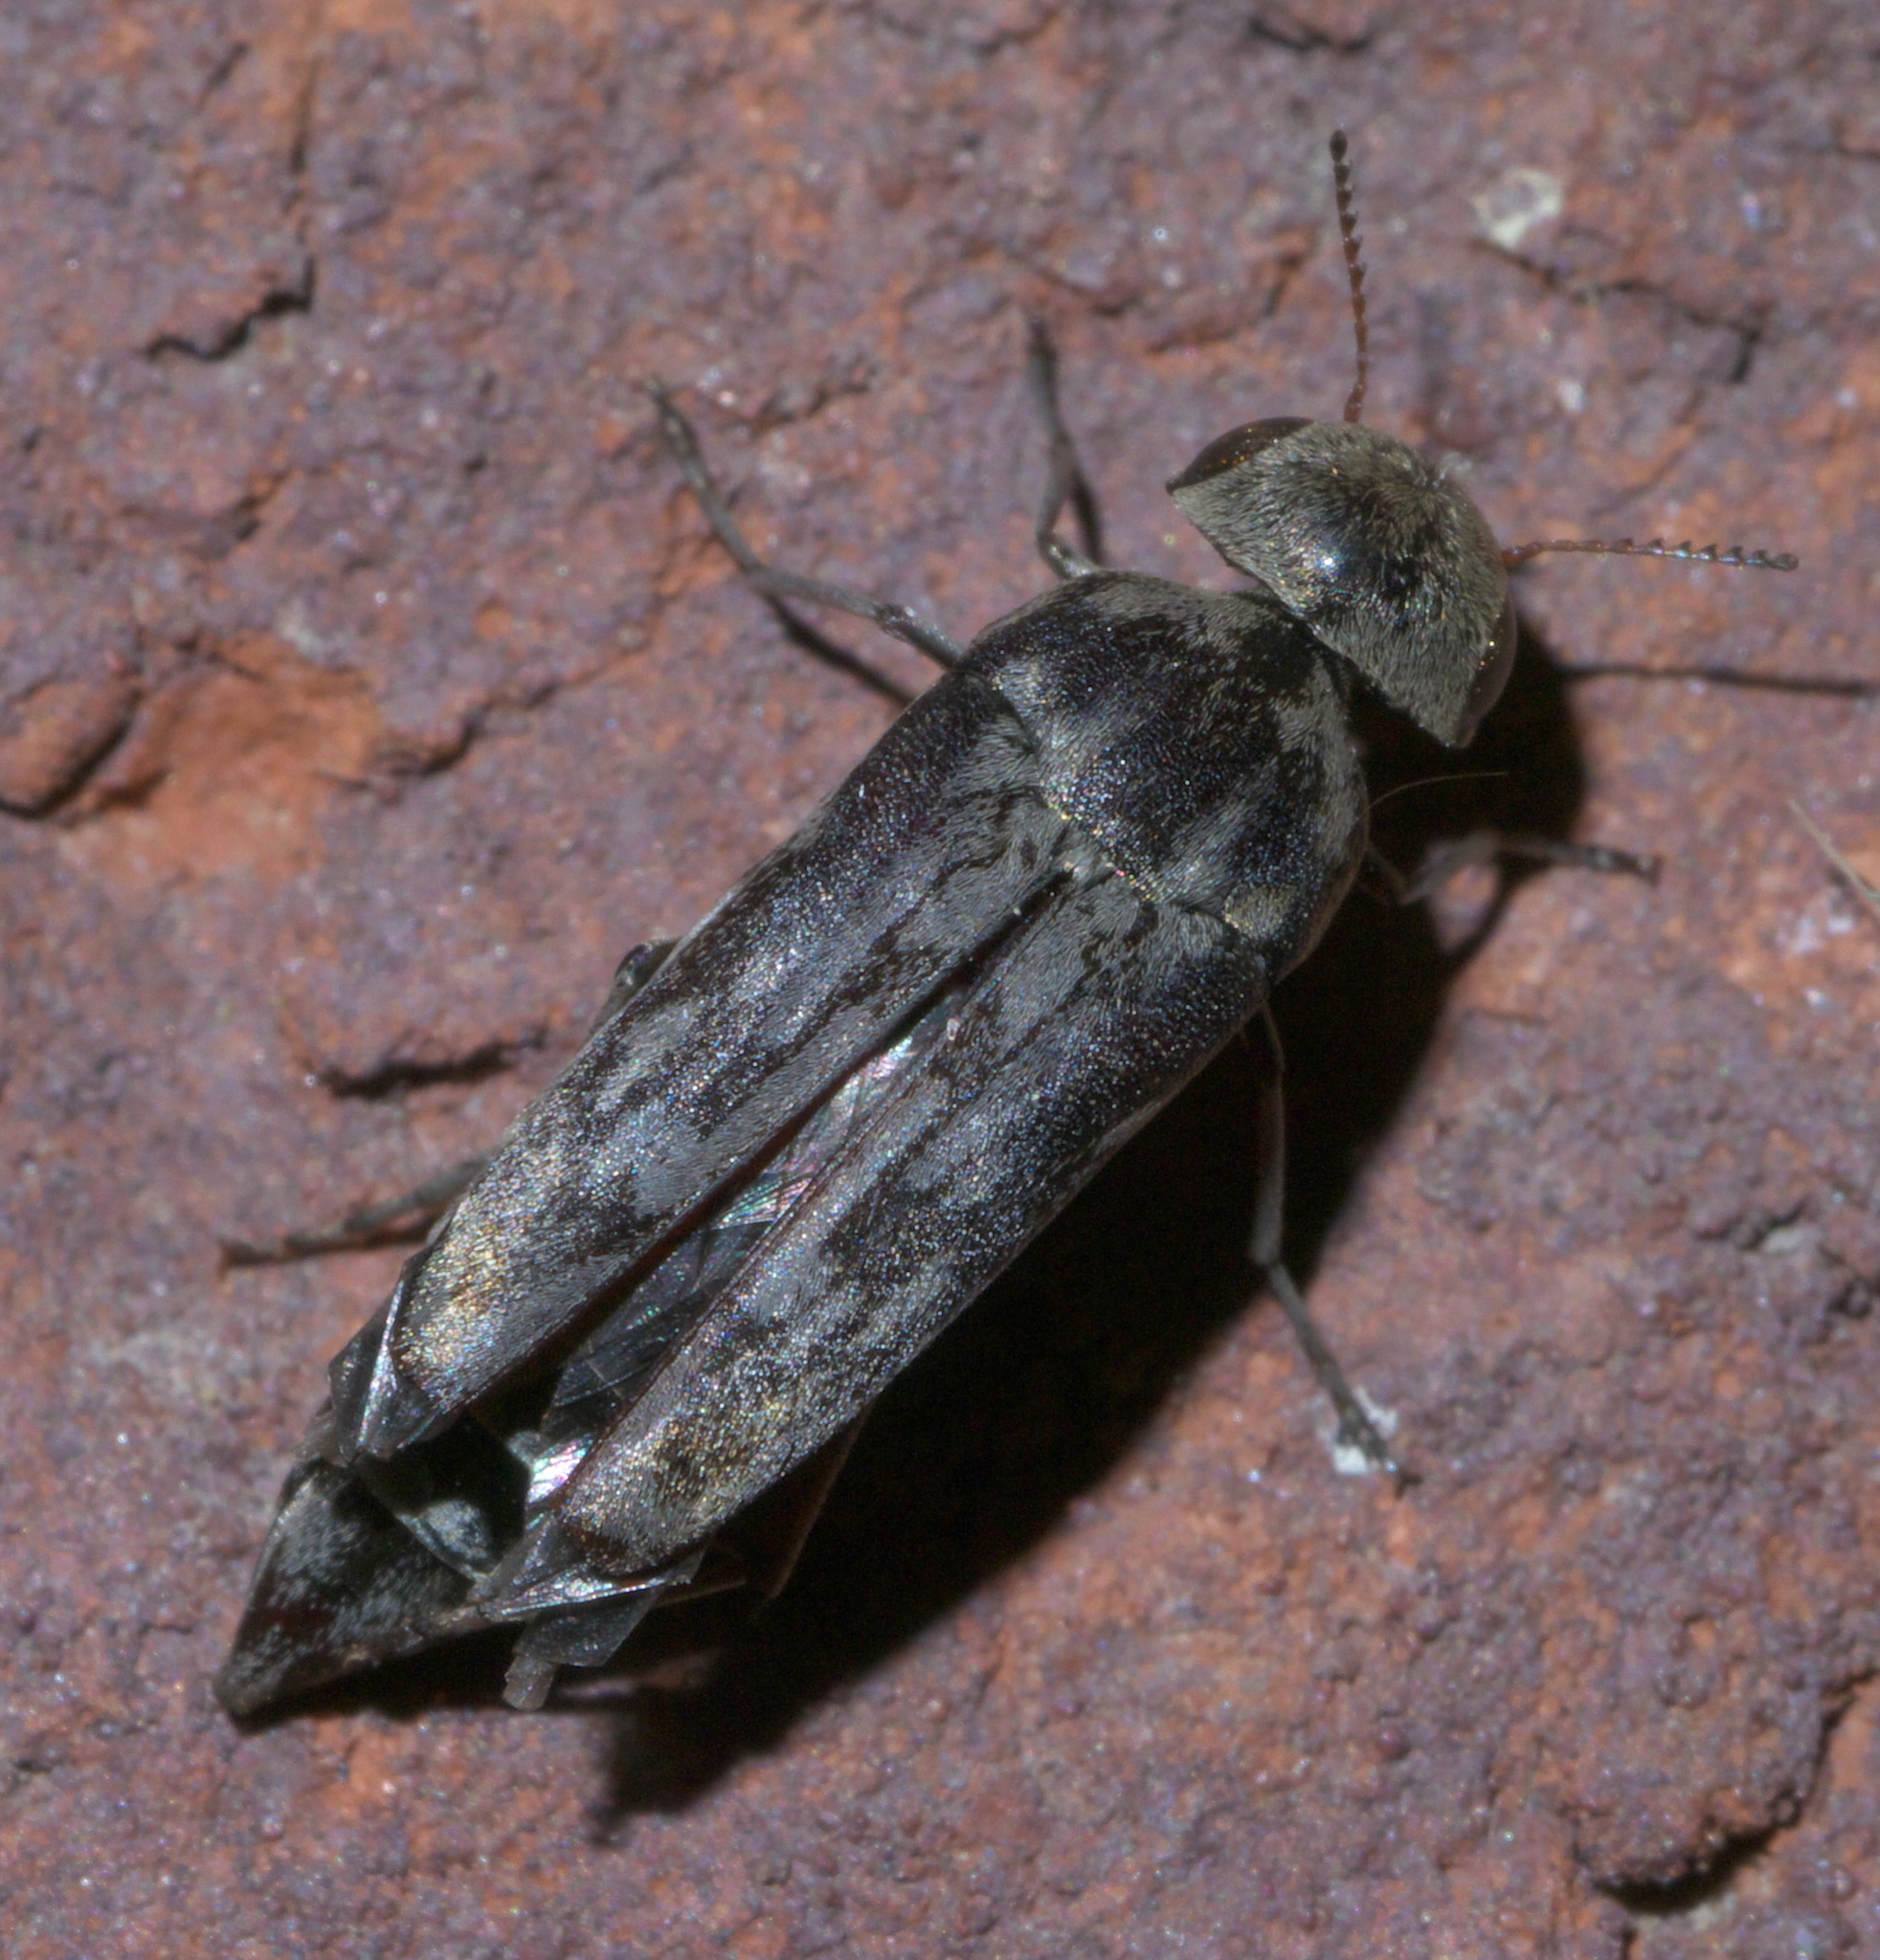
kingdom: Animalia
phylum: Arthropoda
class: Insecta
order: Coleoptera
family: Mordellidae
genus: Yakuhananomia
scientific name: Yakuhananomia bidentata
